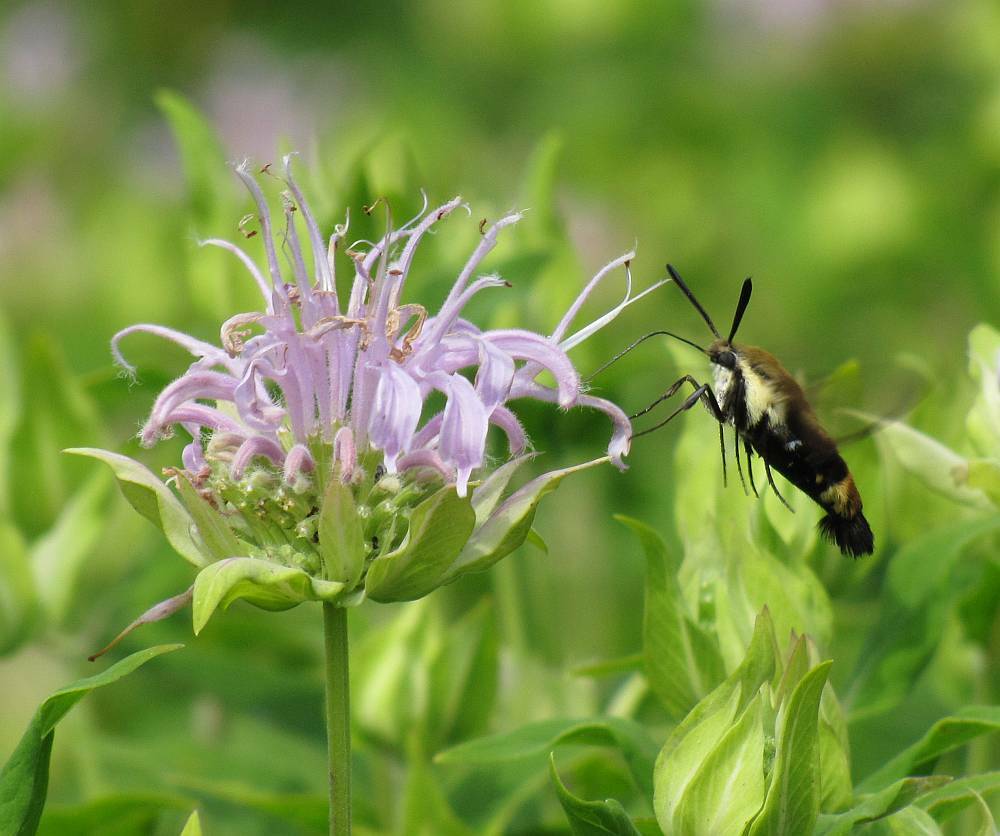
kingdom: Animalia
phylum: Arthropoda
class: Insecta
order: Lepidoptera
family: Sphingidae
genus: Hemaris
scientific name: Hemaris diffinis
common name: Bumblebee moth
